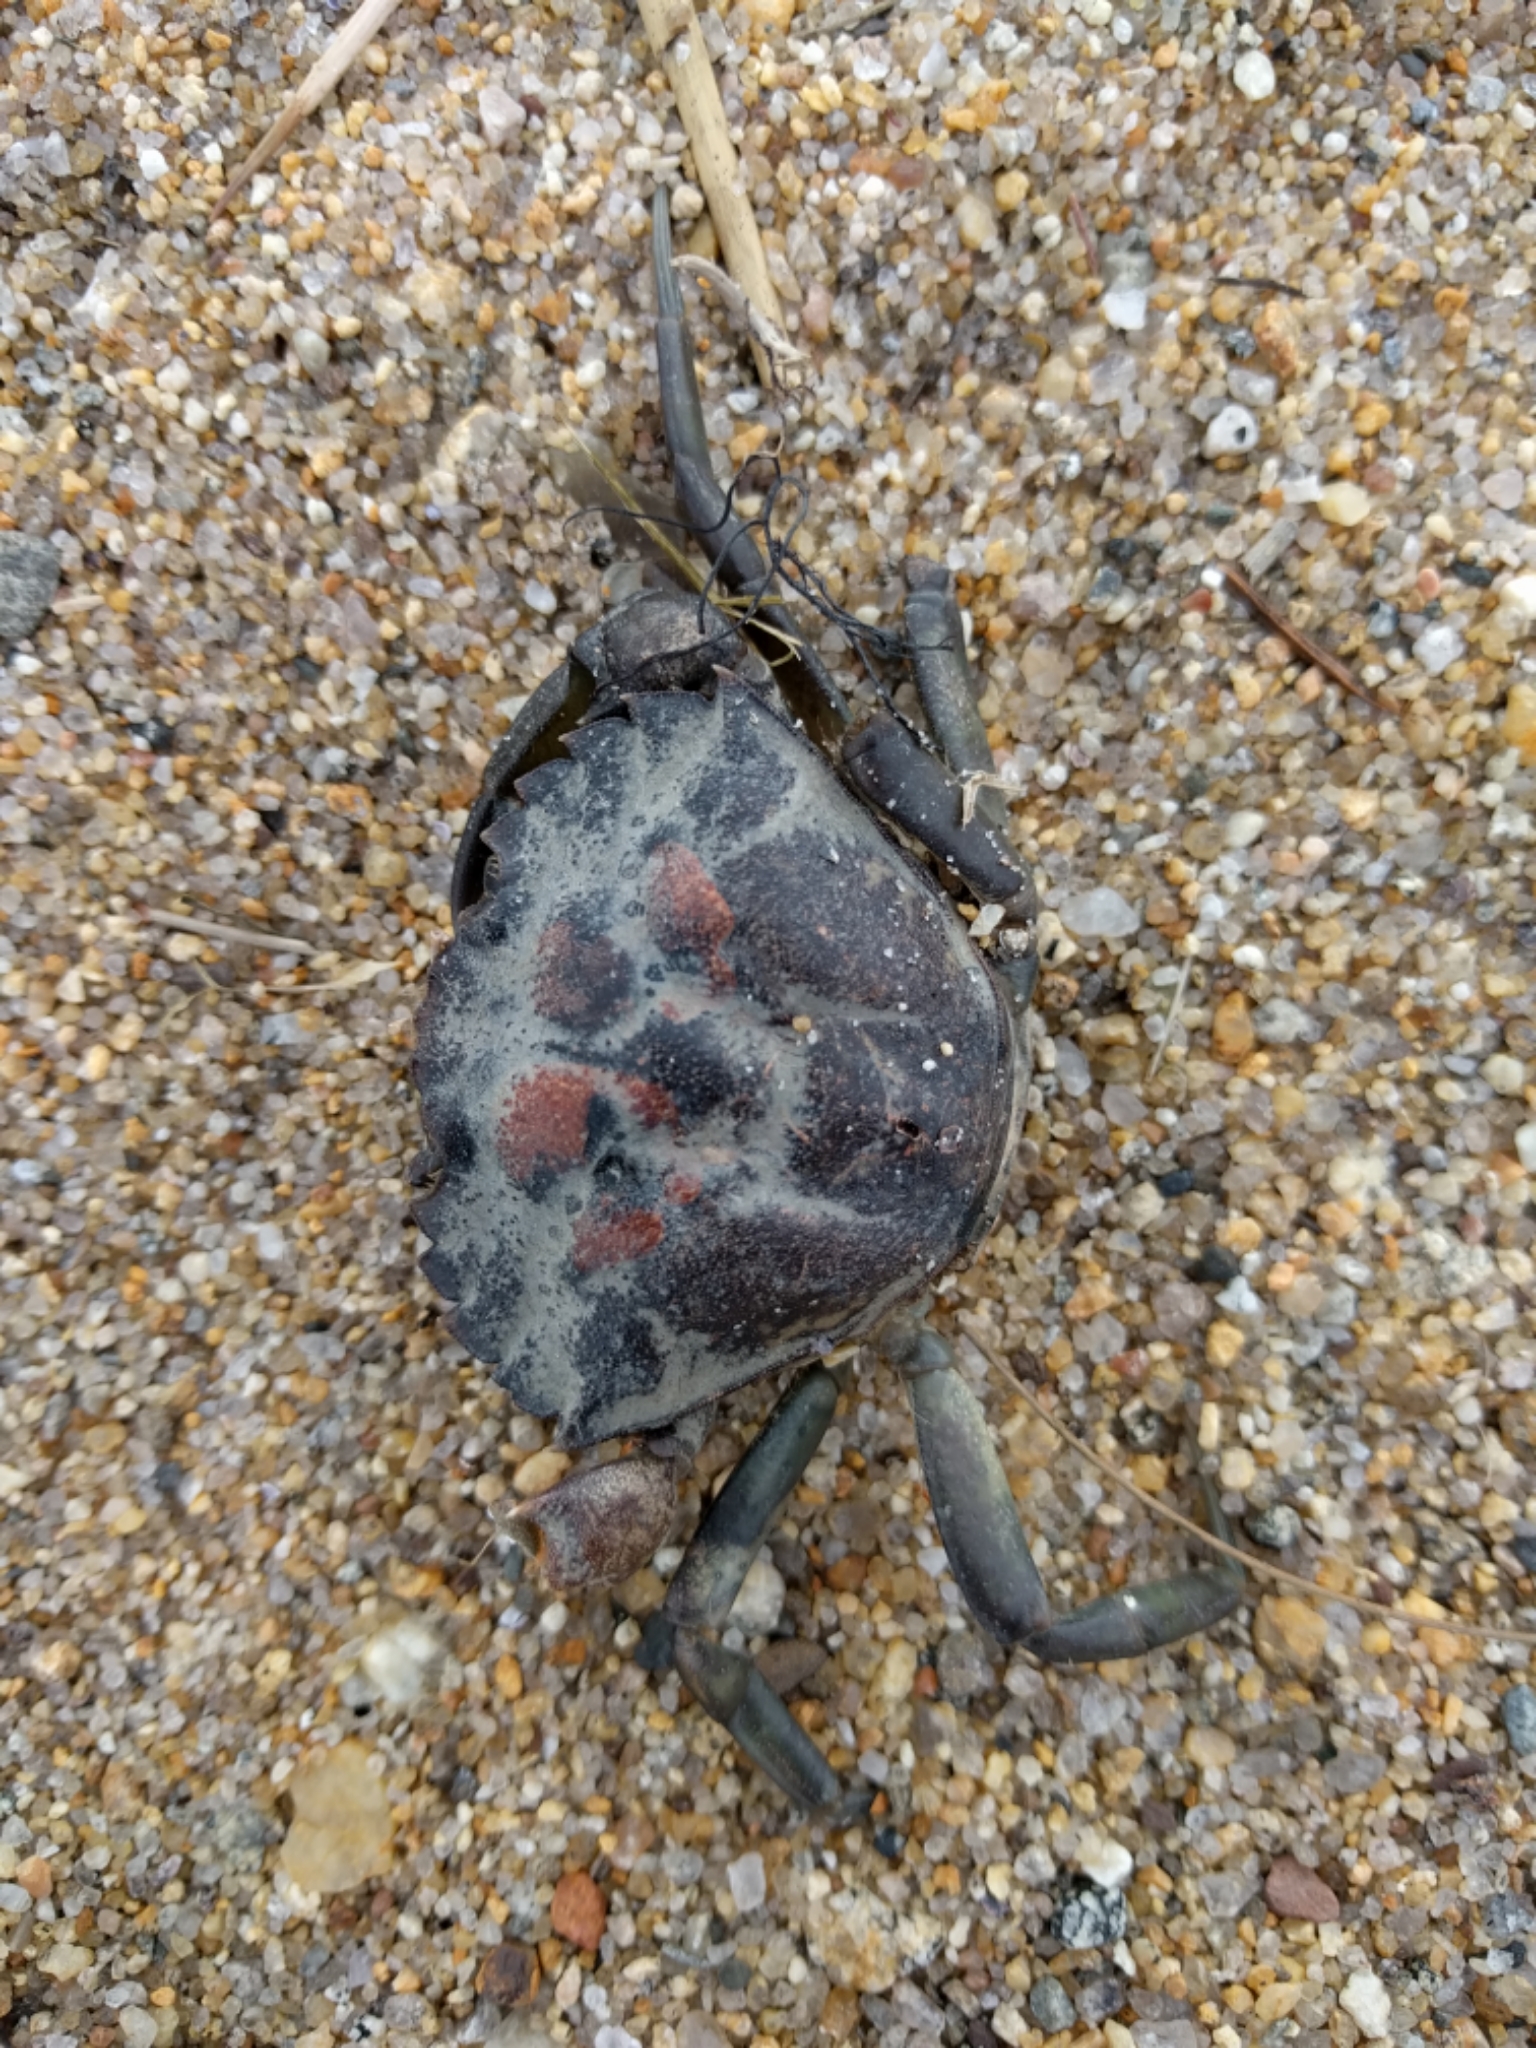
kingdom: Animalia
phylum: Arthropoda
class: Malacostraca
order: Decapoda
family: Carcinidae
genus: Carcinus
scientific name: Carcinus maenas
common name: European green crab
